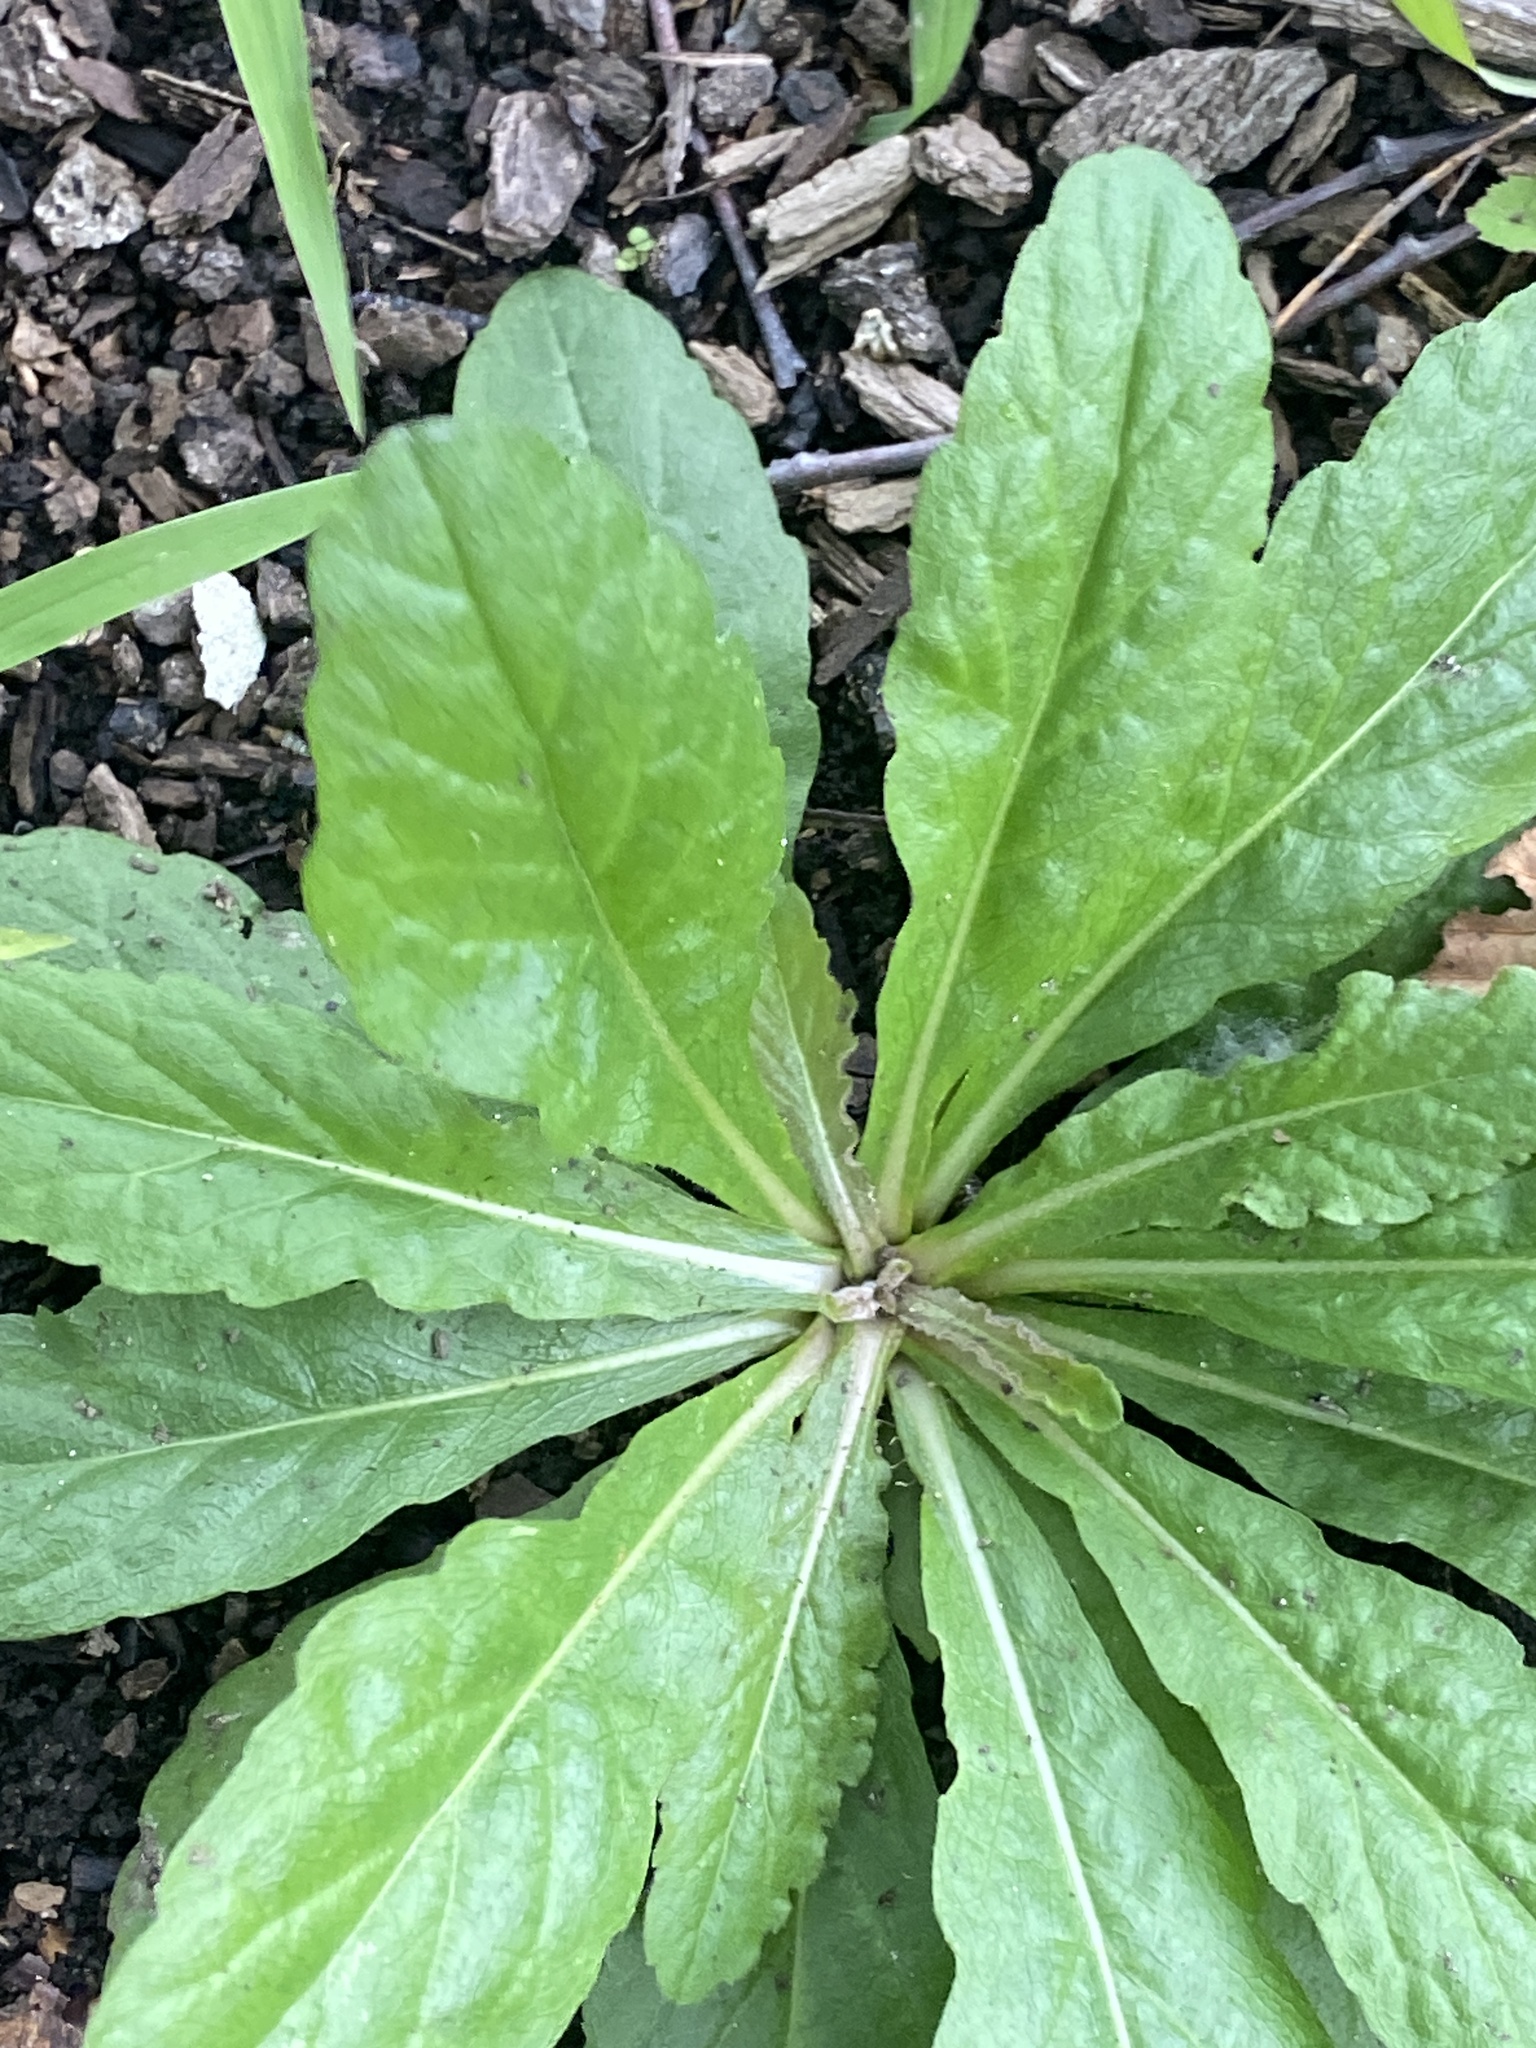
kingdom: Plantae
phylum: Tracheophyta
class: Magnoliopsida
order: Asterales
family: Asteraceae
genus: Erigeron
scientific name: Erigeron philadelphicus
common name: Robin's-plantain
